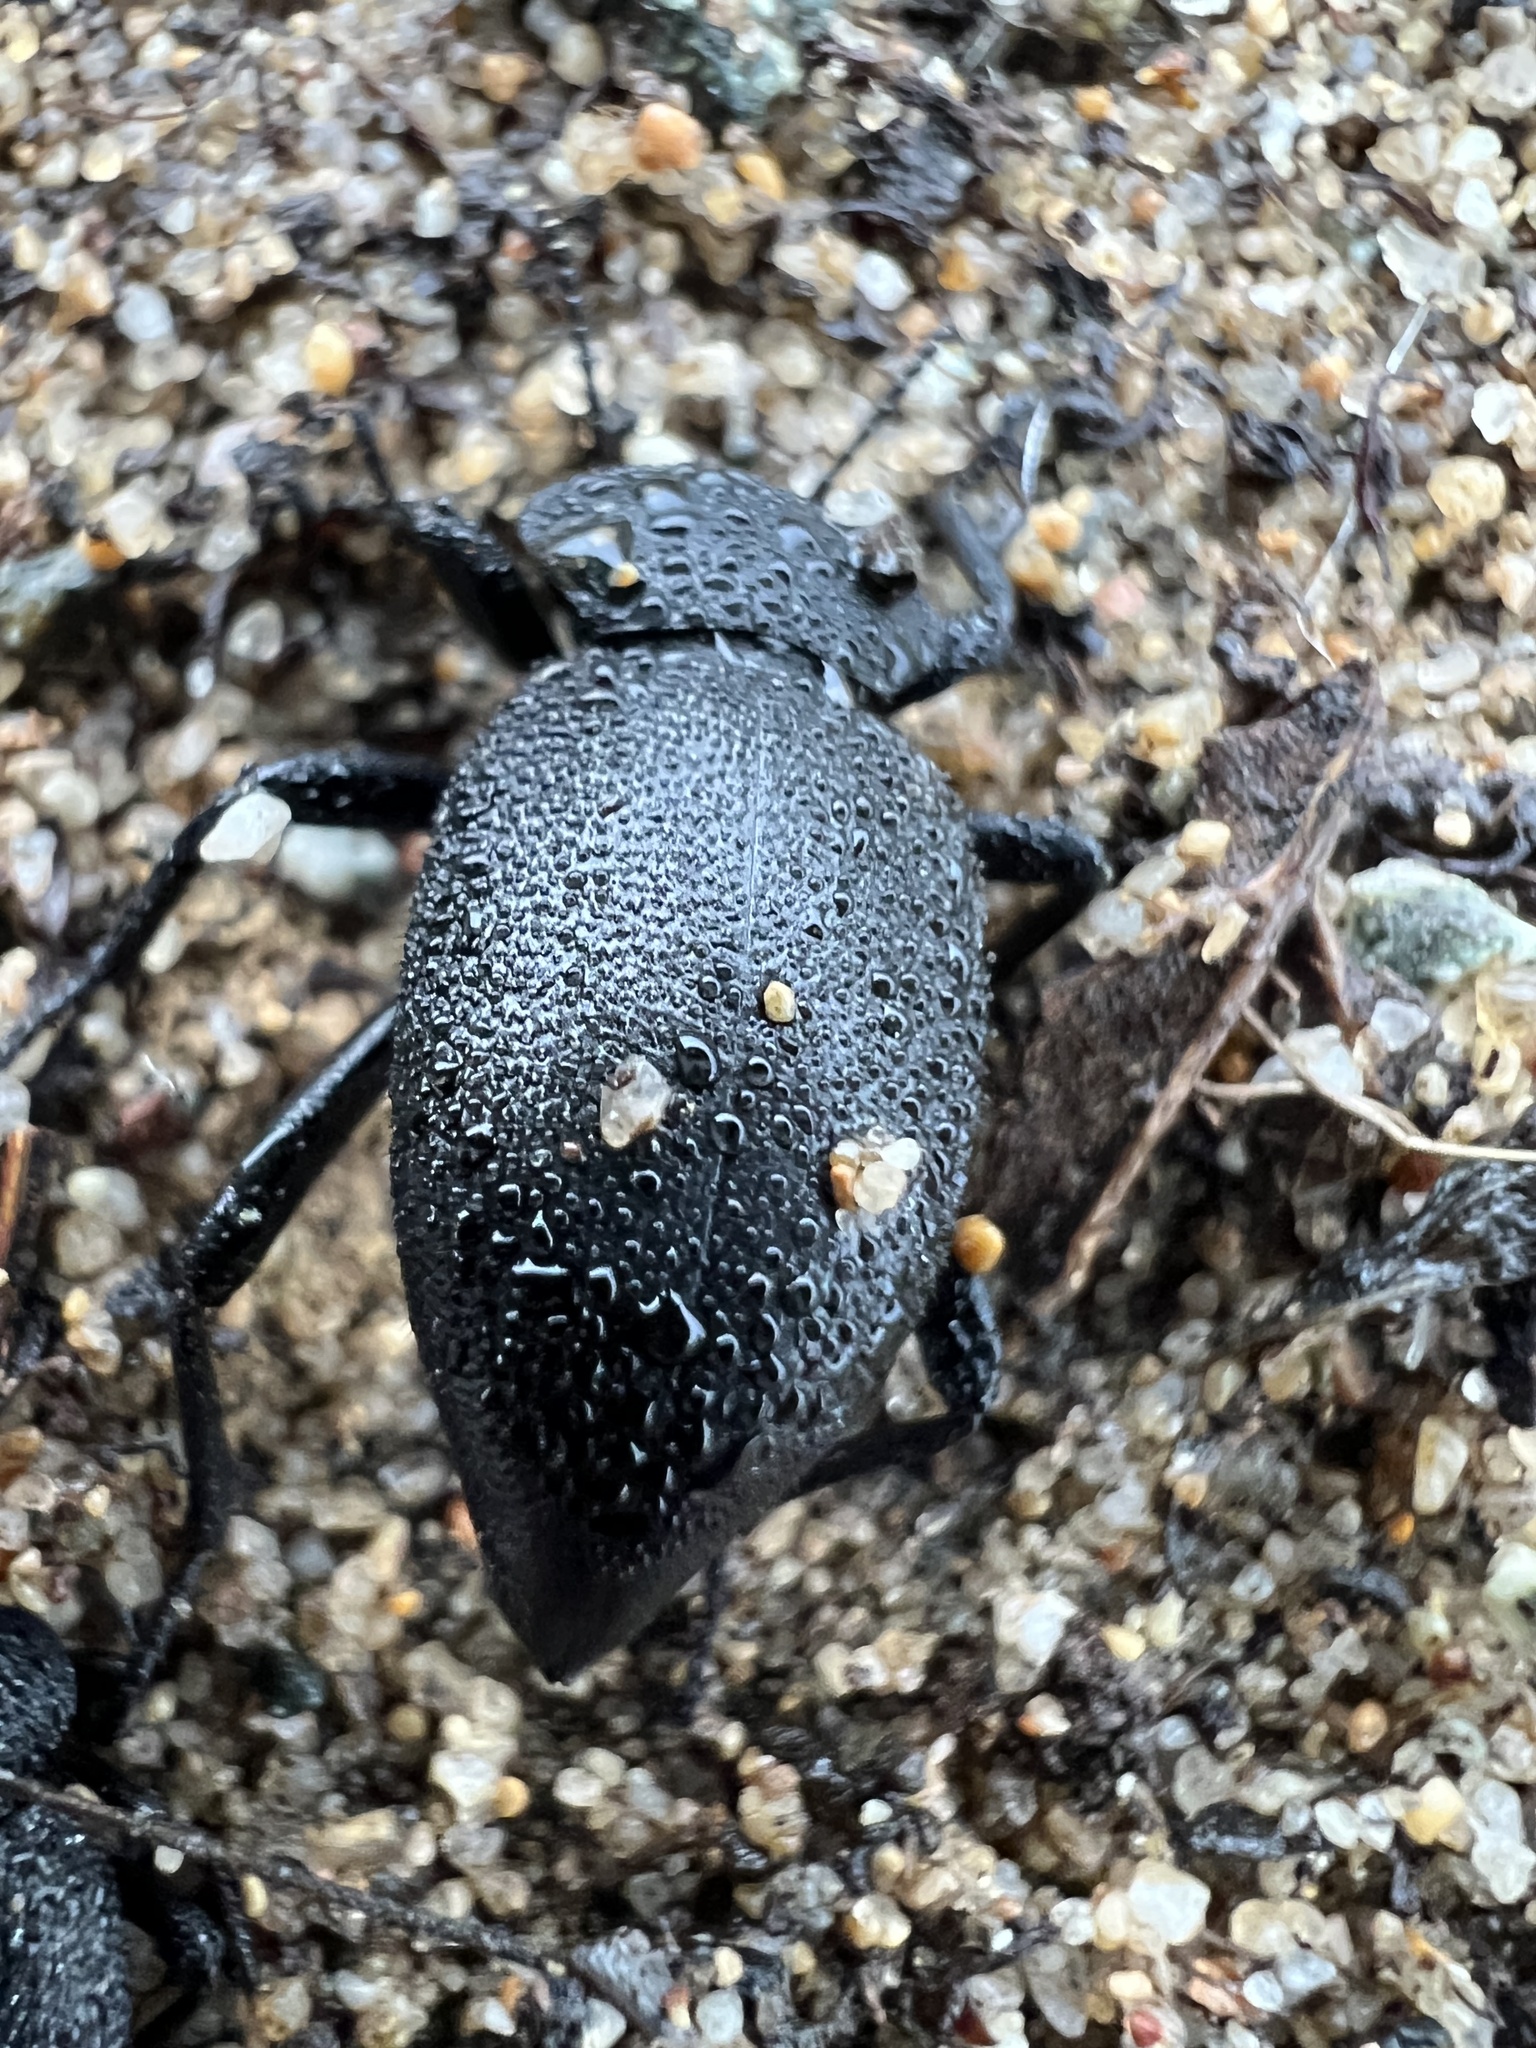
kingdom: Animalia
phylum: Arthropoda
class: Insecta
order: Coleoptera
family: Tenebrionidae
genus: Eleodes
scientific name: Eleodes marginata
